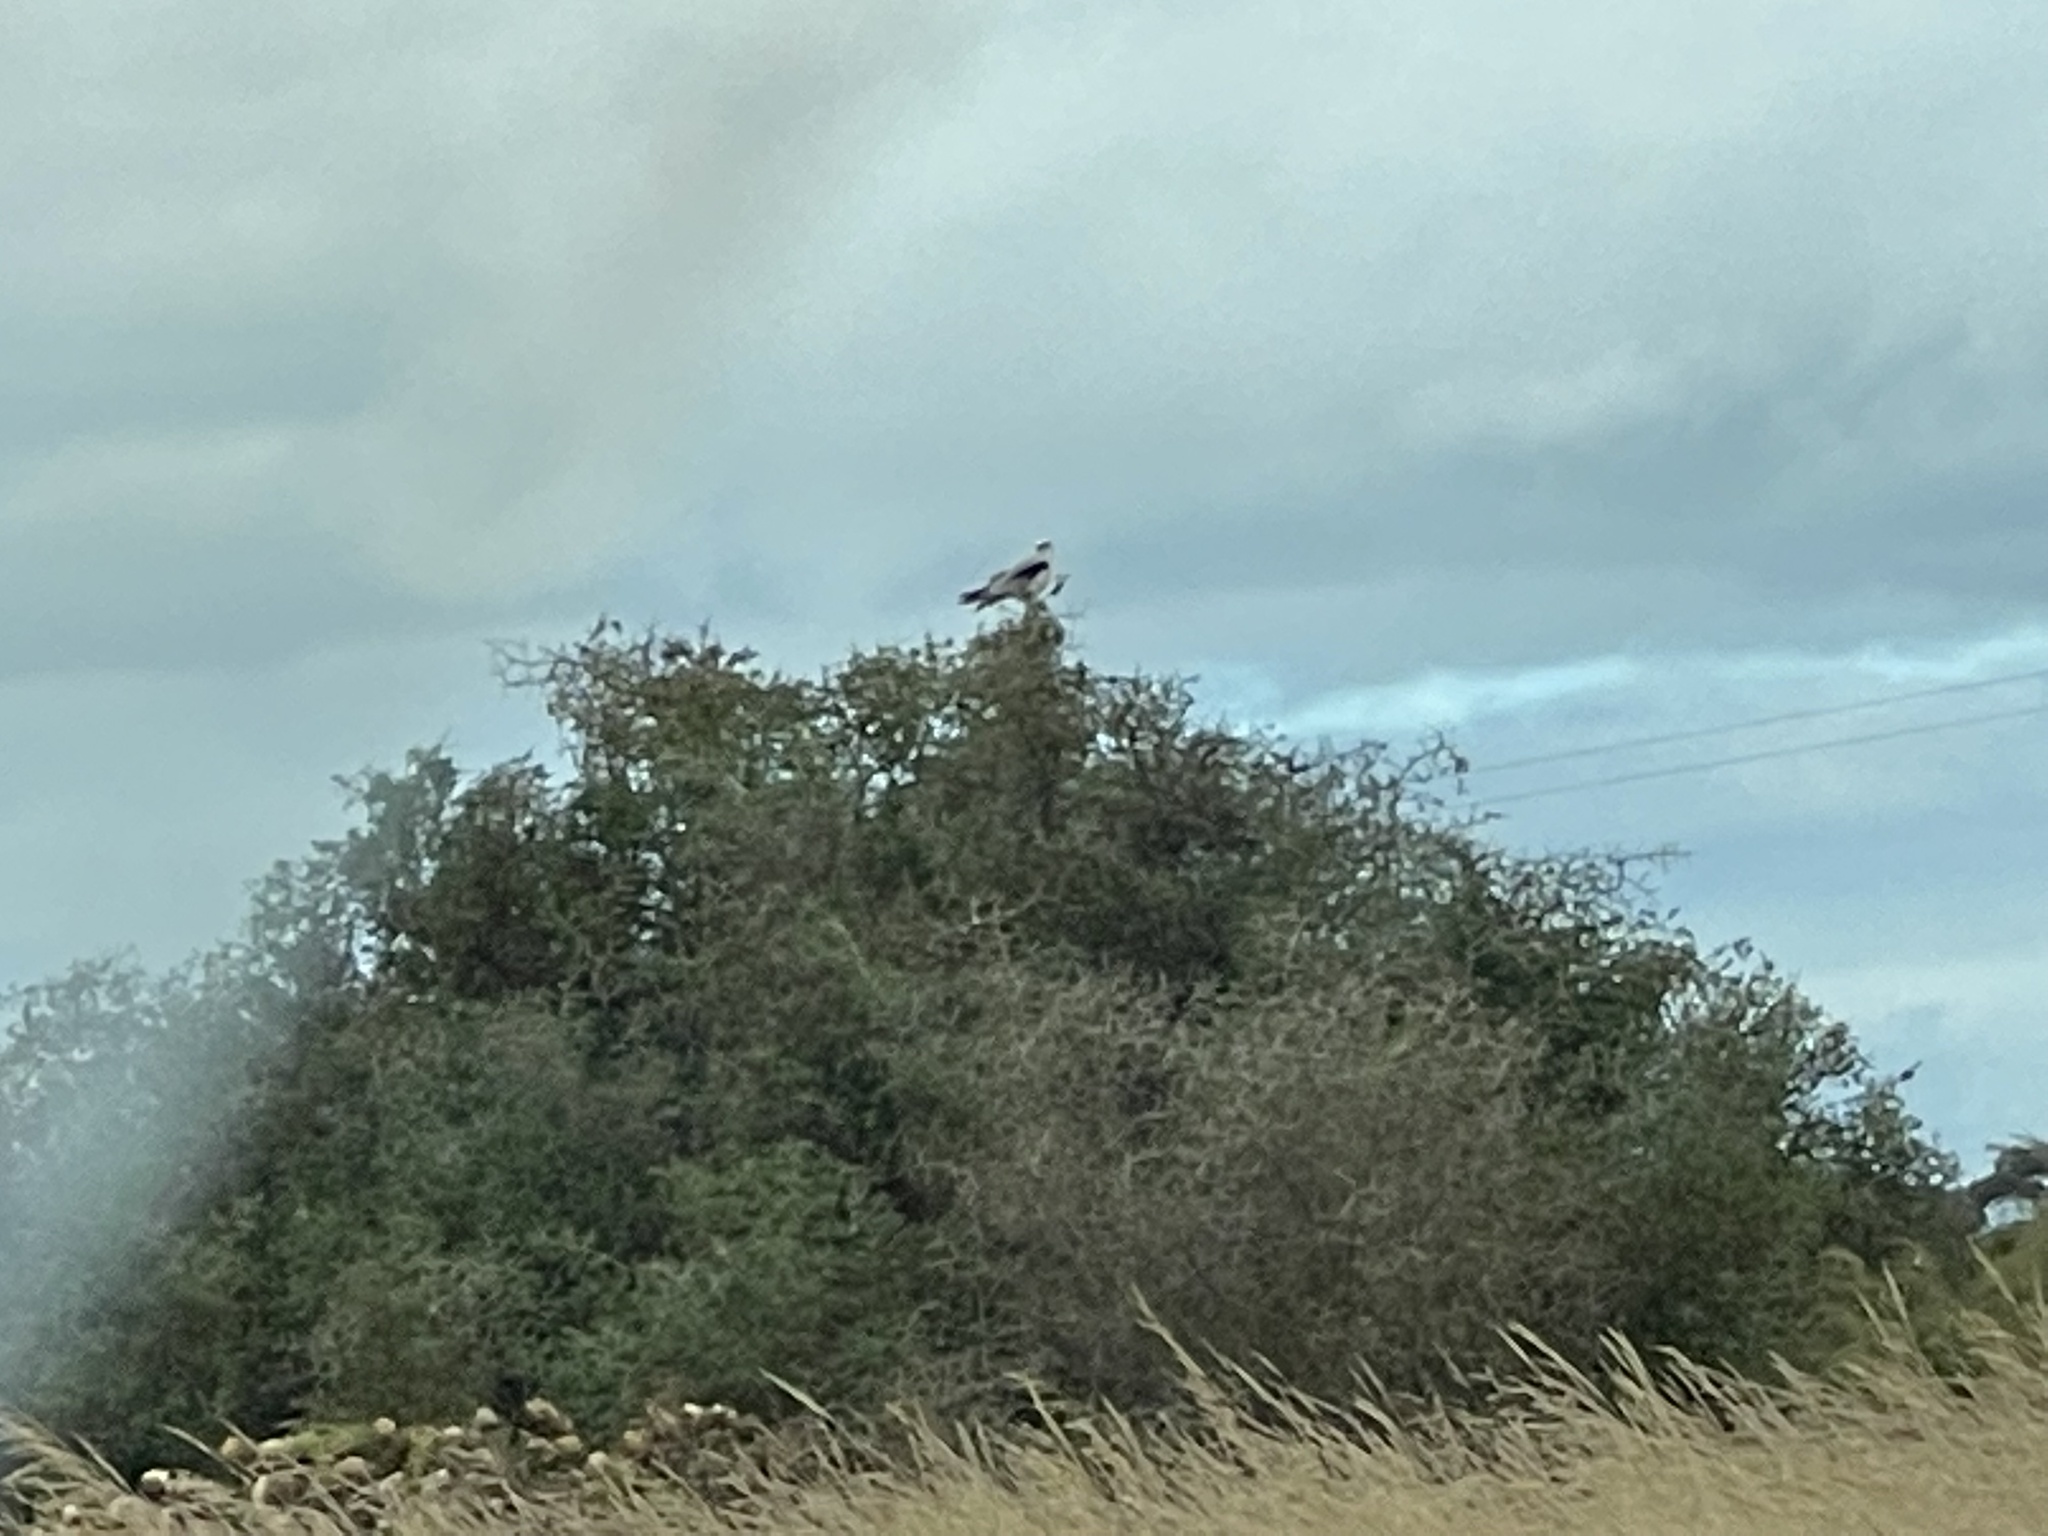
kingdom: Animalia
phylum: Chordata
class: Aves
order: Accipitriformes
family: Accipitridae
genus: Elanus
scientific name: Elanus axillaris
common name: Black-shouldered kite
